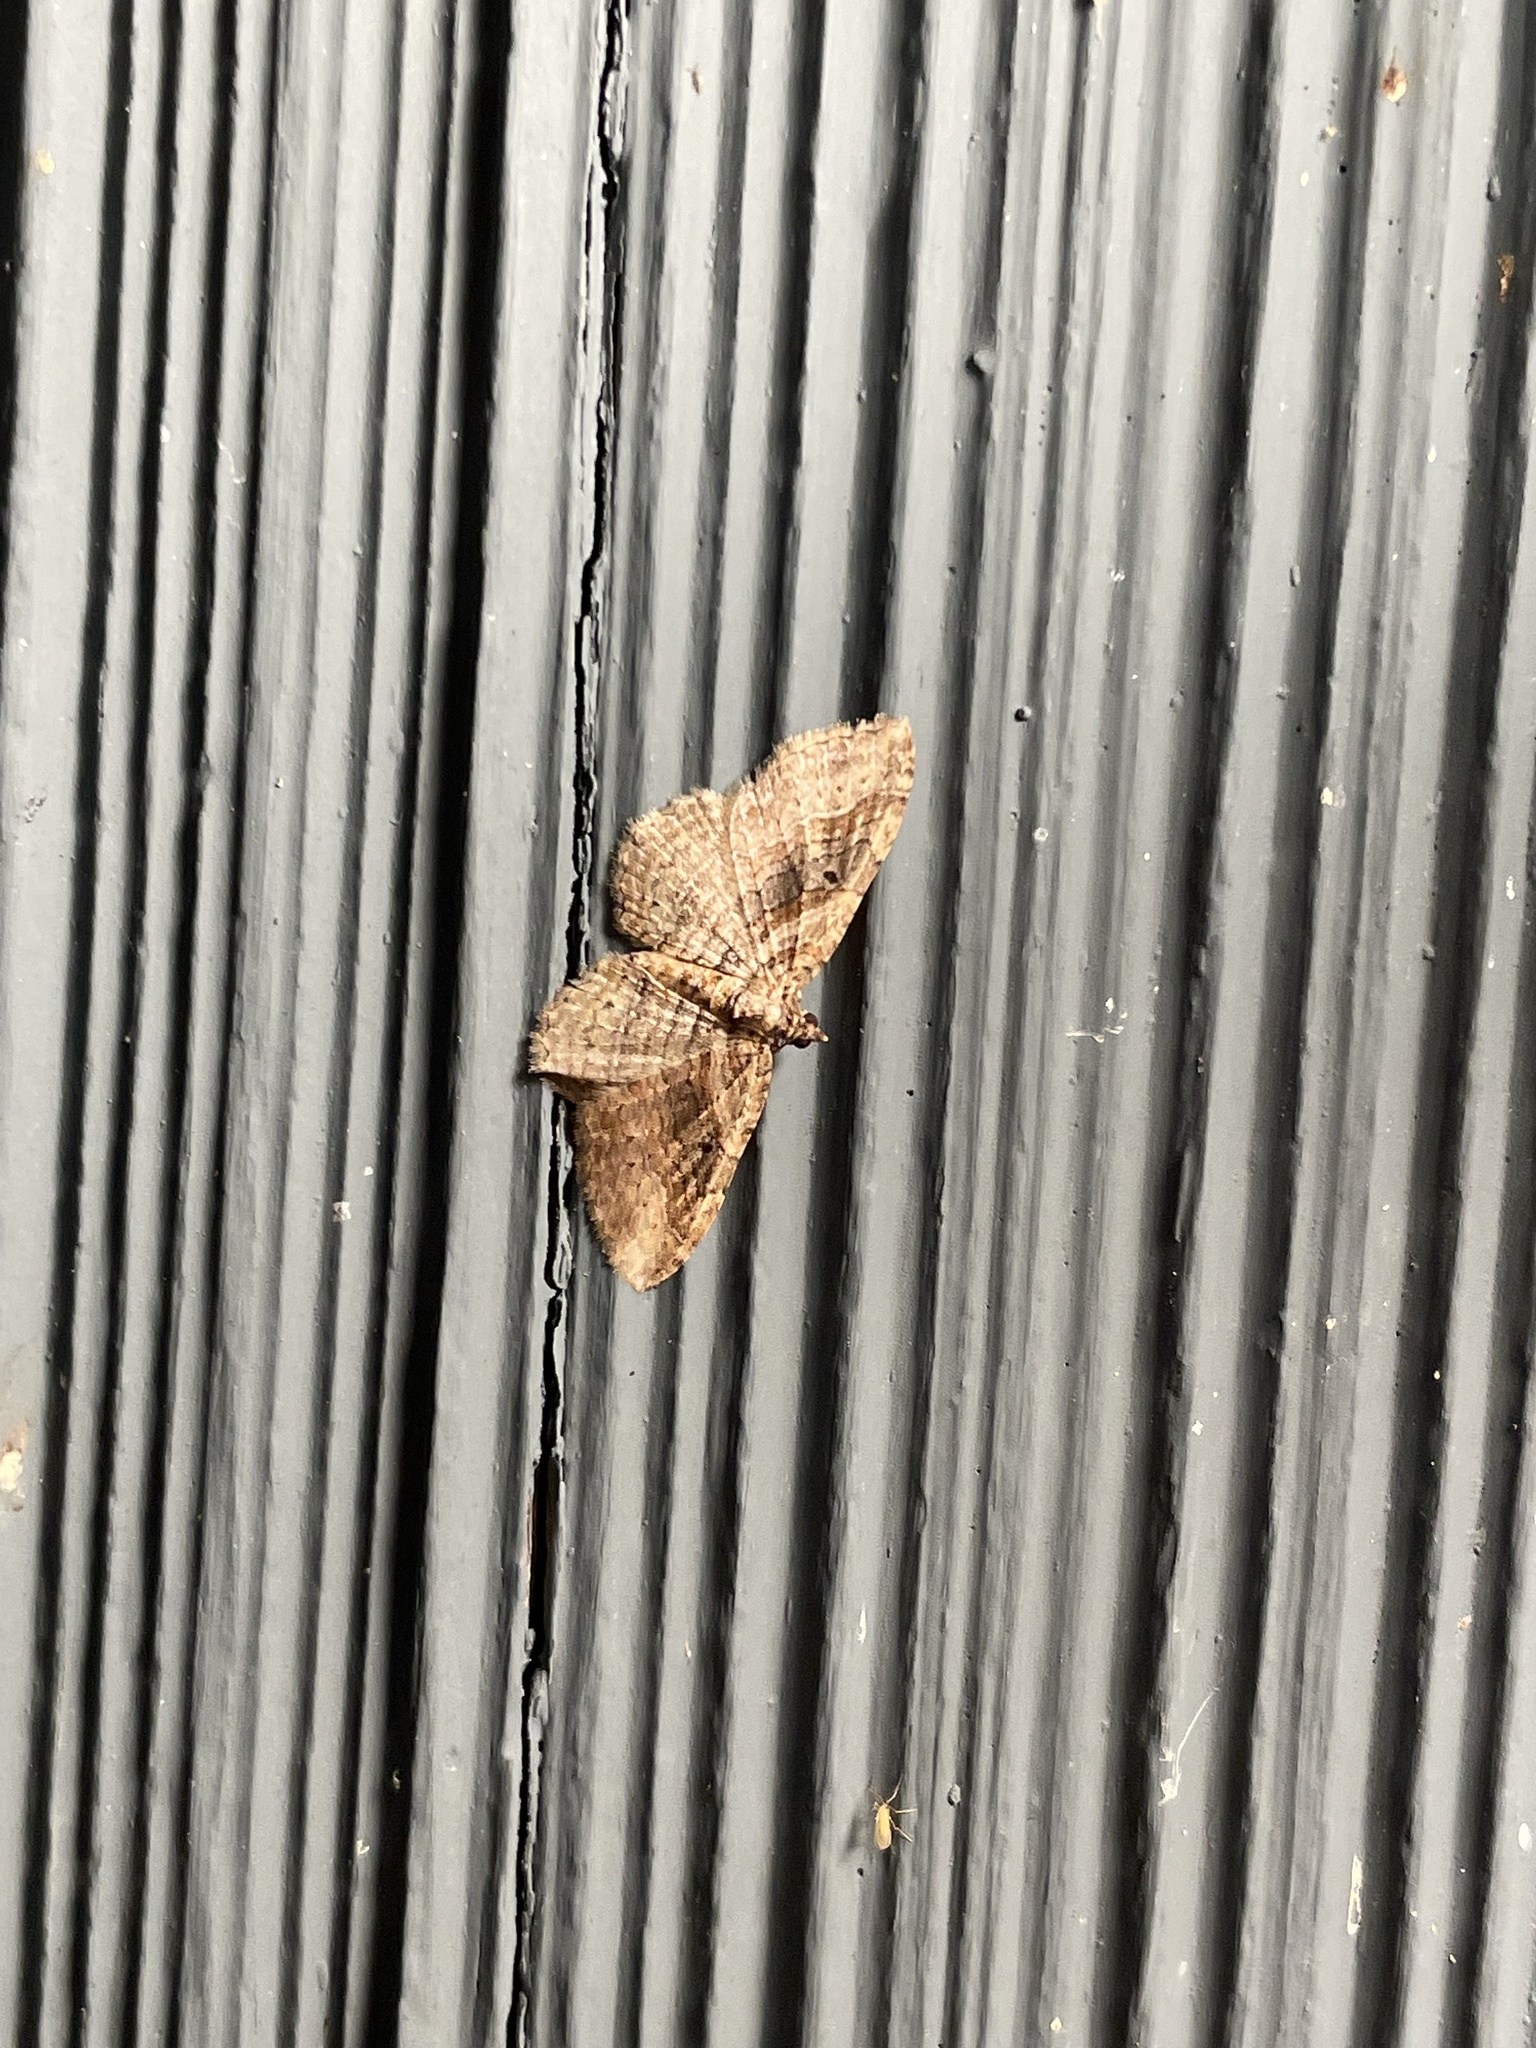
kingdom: Animalia
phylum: Arthropoda
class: Insecta
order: Lepidoptera
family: Geometridae
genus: Costaconvexa
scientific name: Costaconvexa centrostrigaria
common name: Bent-line carpet
